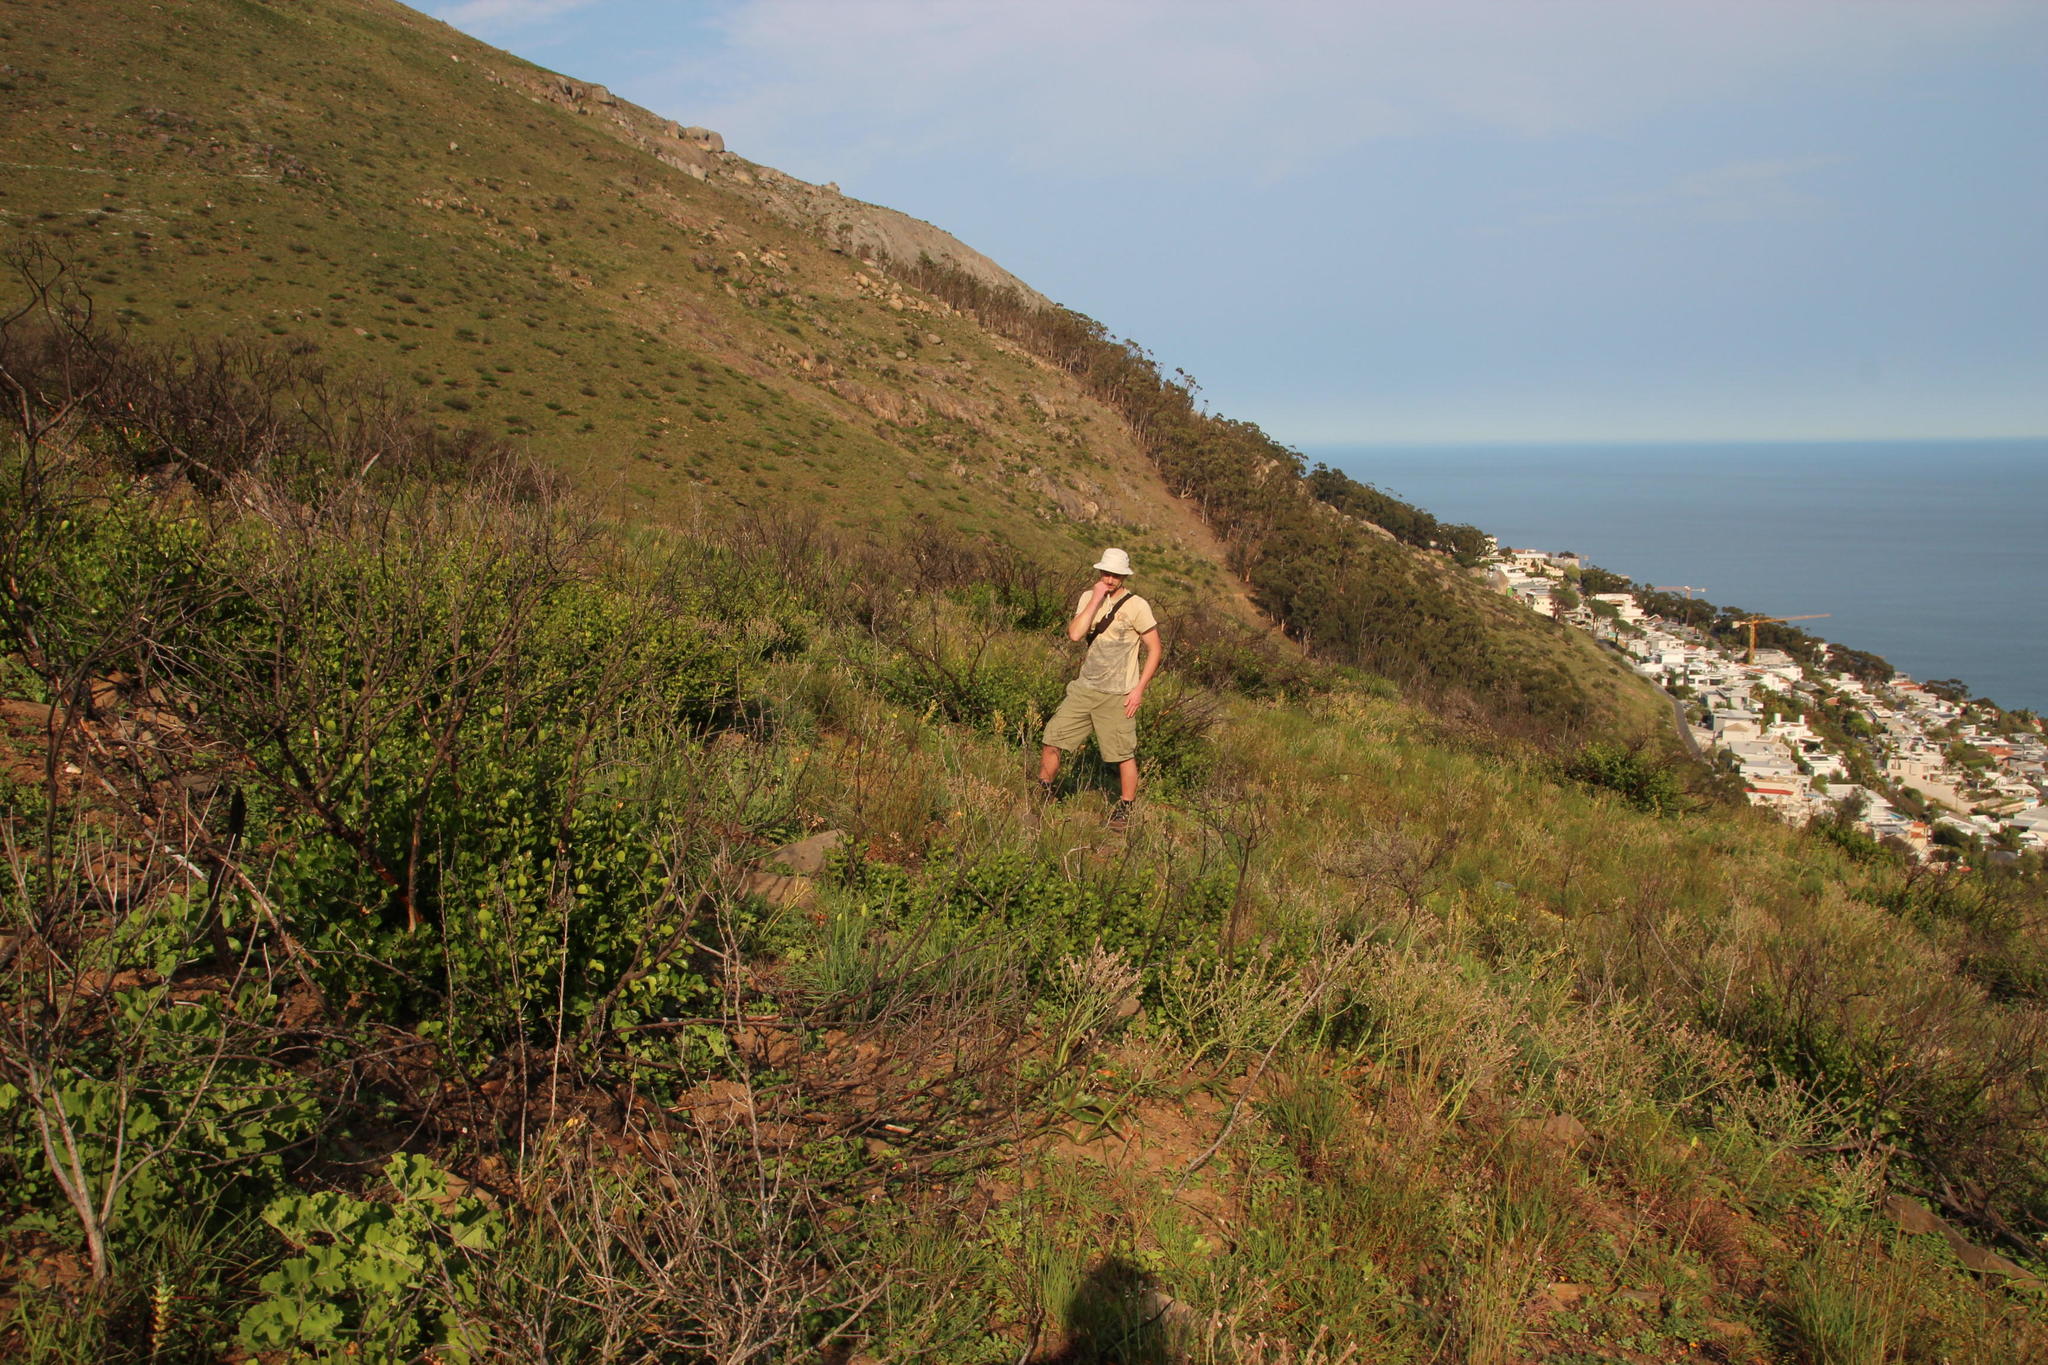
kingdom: Plantae
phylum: Tracheophyta
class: Magnoliopsida
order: Sapindales
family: Anacardiaceae
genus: Searsia
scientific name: Searsia lucida
